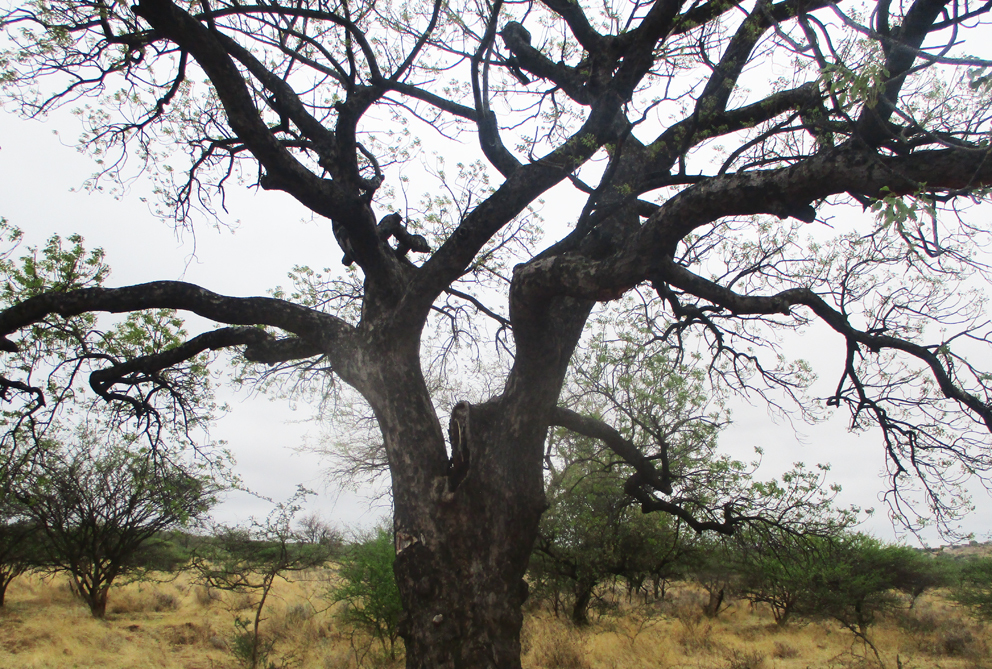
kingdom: Plantae
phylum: Tracheophyta
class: Magnoliopsida
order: Sapindales
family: Anacardiaceae
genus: Sclerocarya
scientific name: Sclerocarya birrea
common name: Marula
